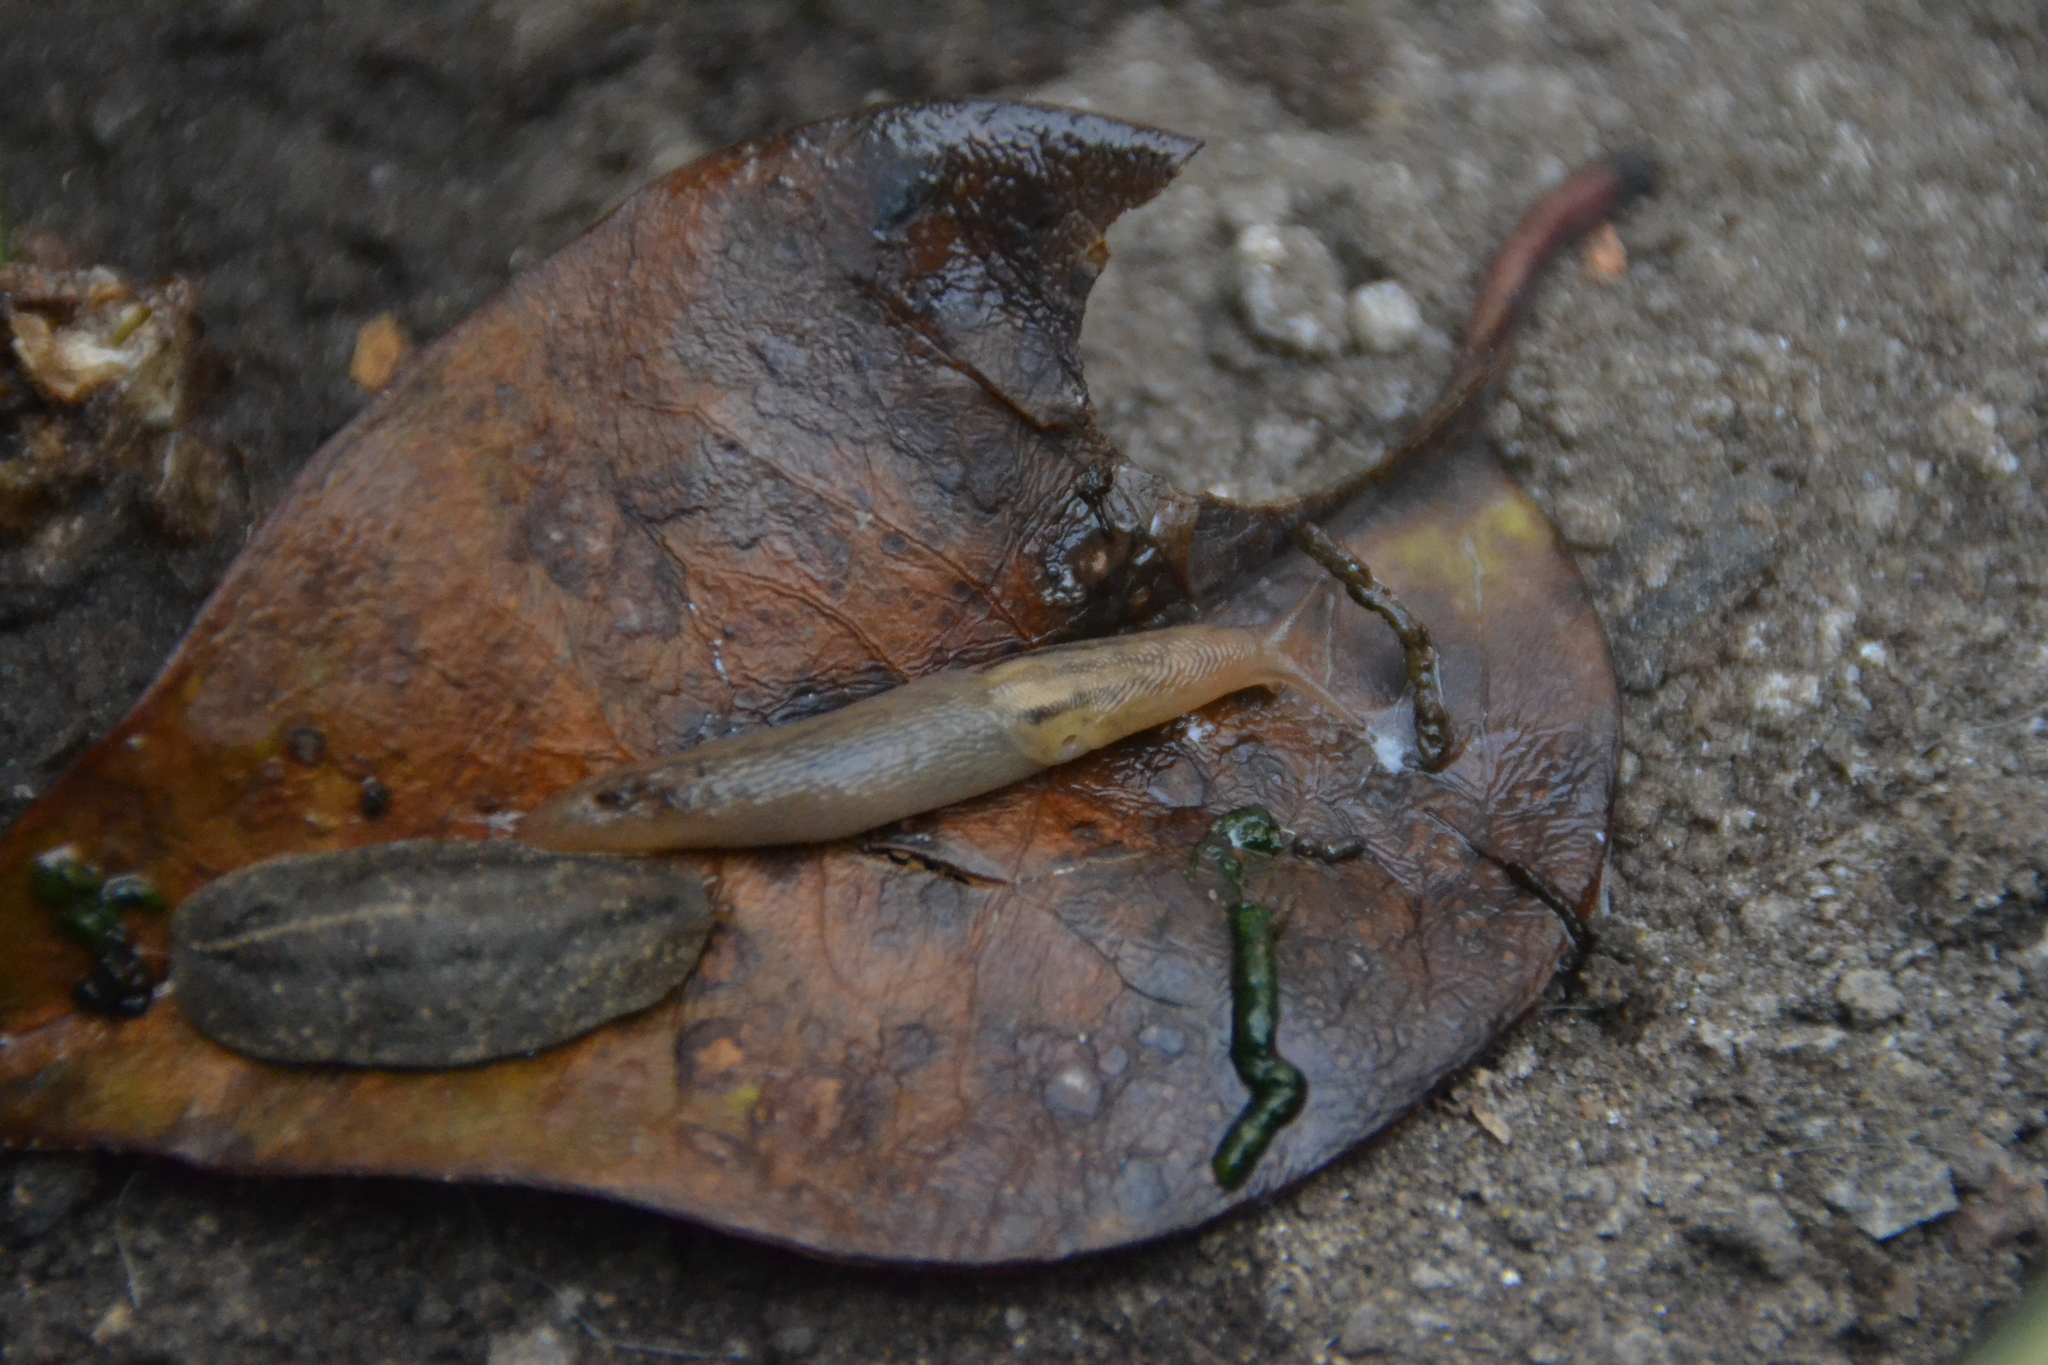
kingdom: Animalia
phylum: Mollusca
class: Gastropoda
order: Stylommatophora
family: Limacidae
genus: Ambigolimax
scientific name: Ambigolimax
